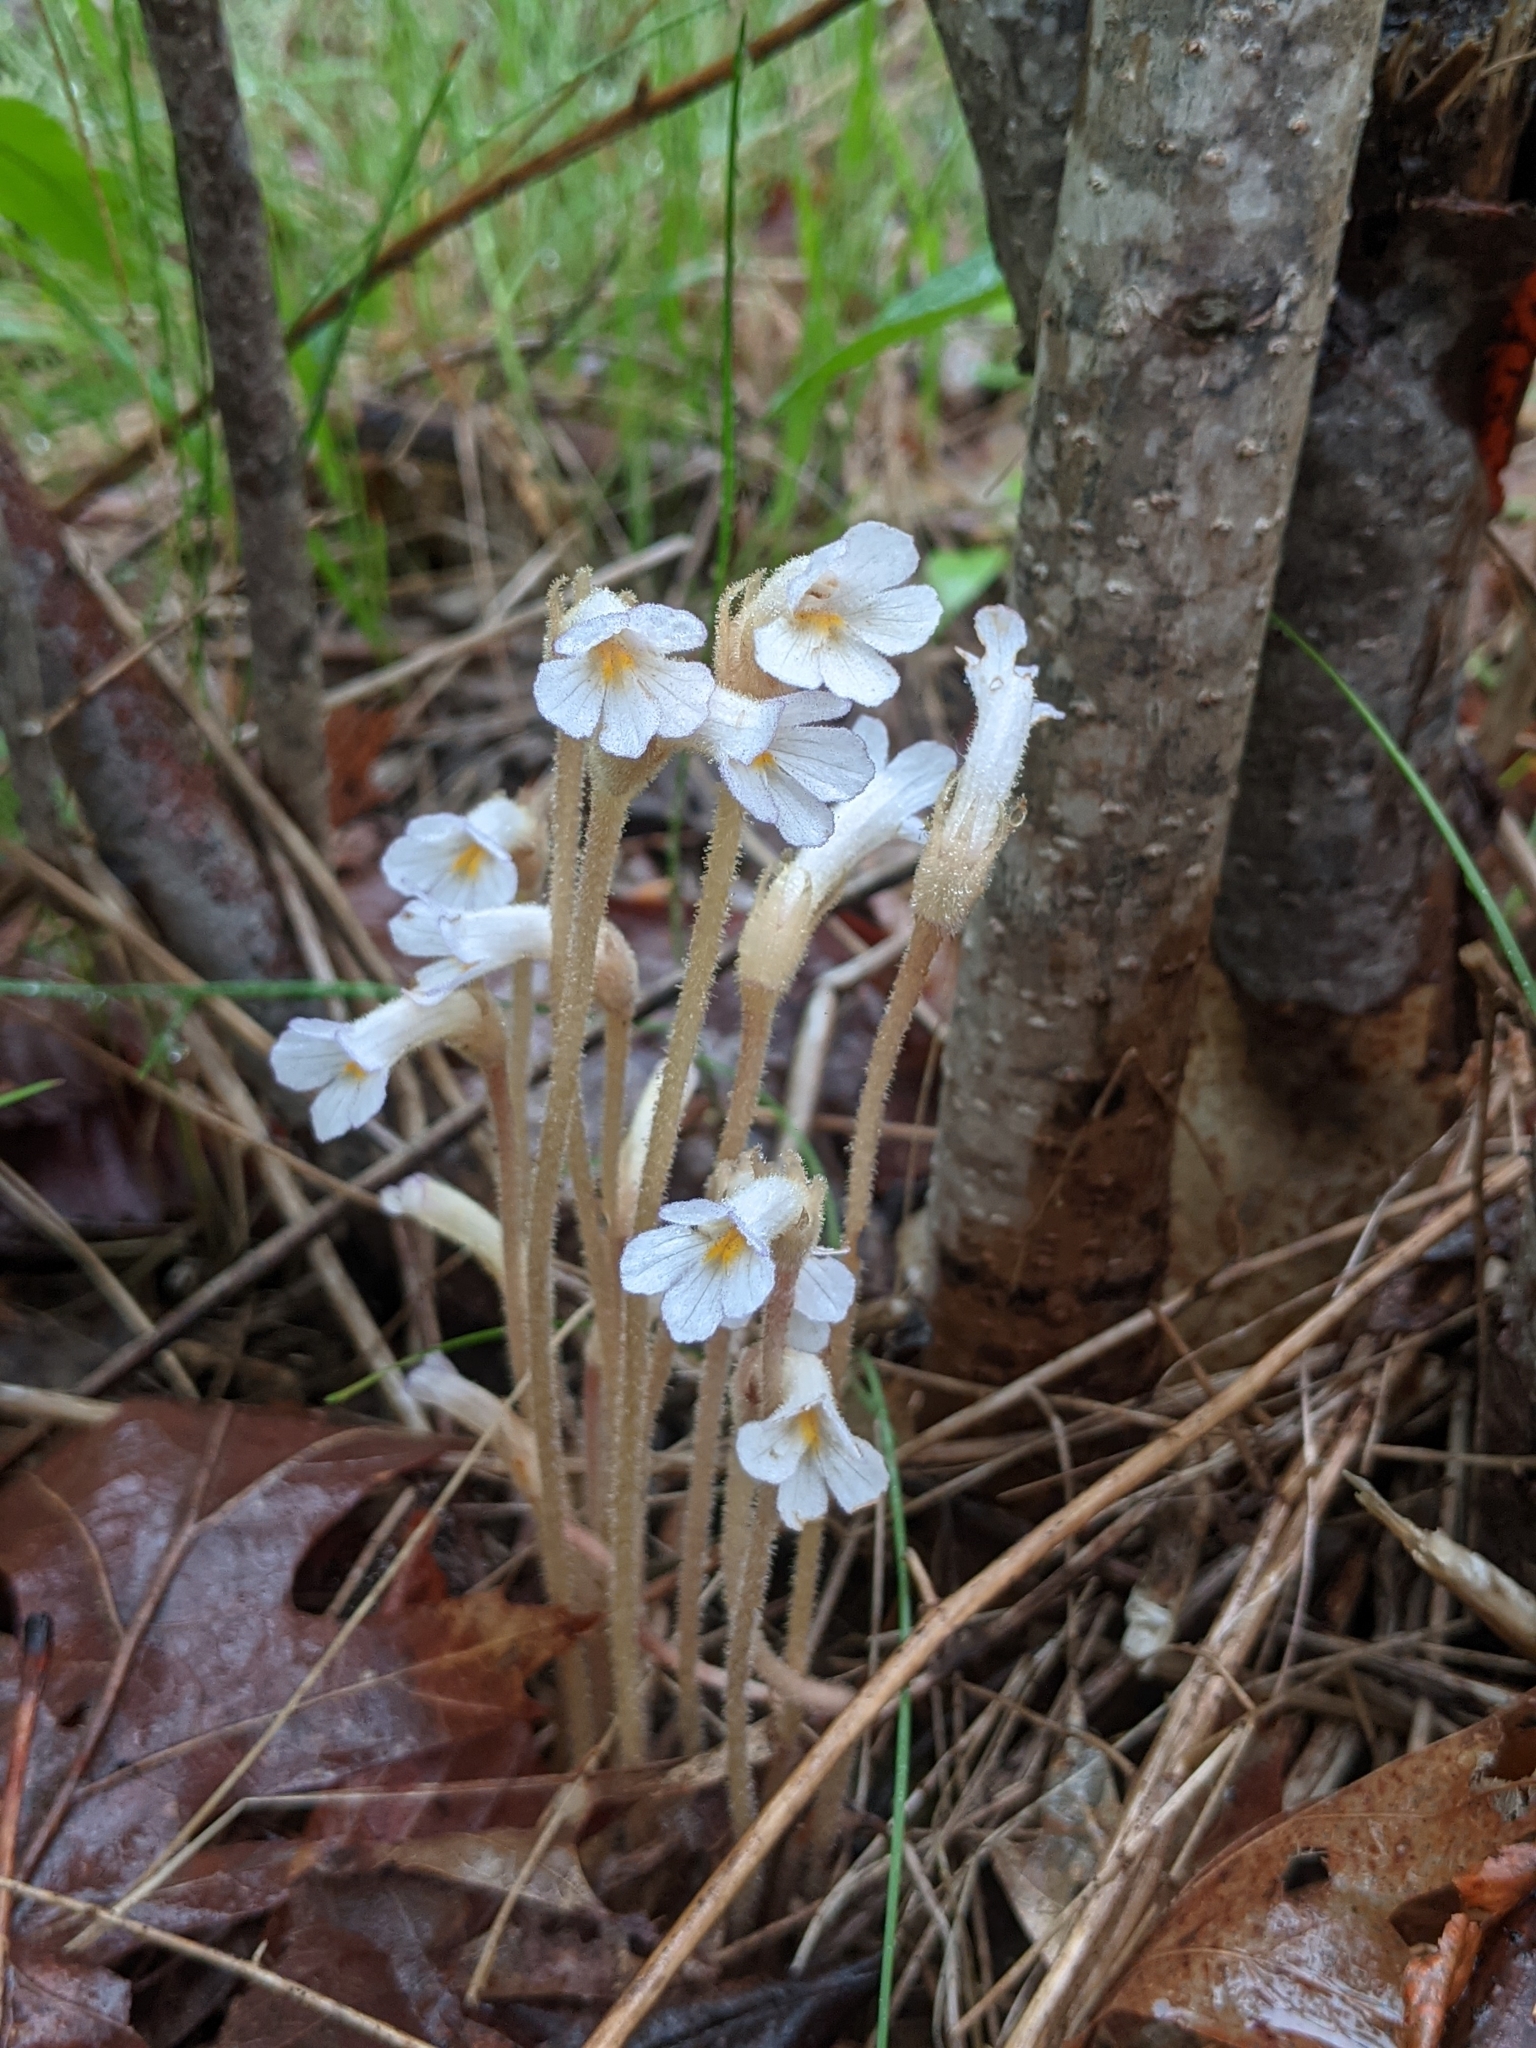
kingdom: Plantae
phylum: Tracheophyta
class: Magnoliopsida
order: Lamiales
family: Orobanchaceae
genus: Aphyllon
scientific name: Aphyllon uniflorum
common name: One-flowered broomrape
